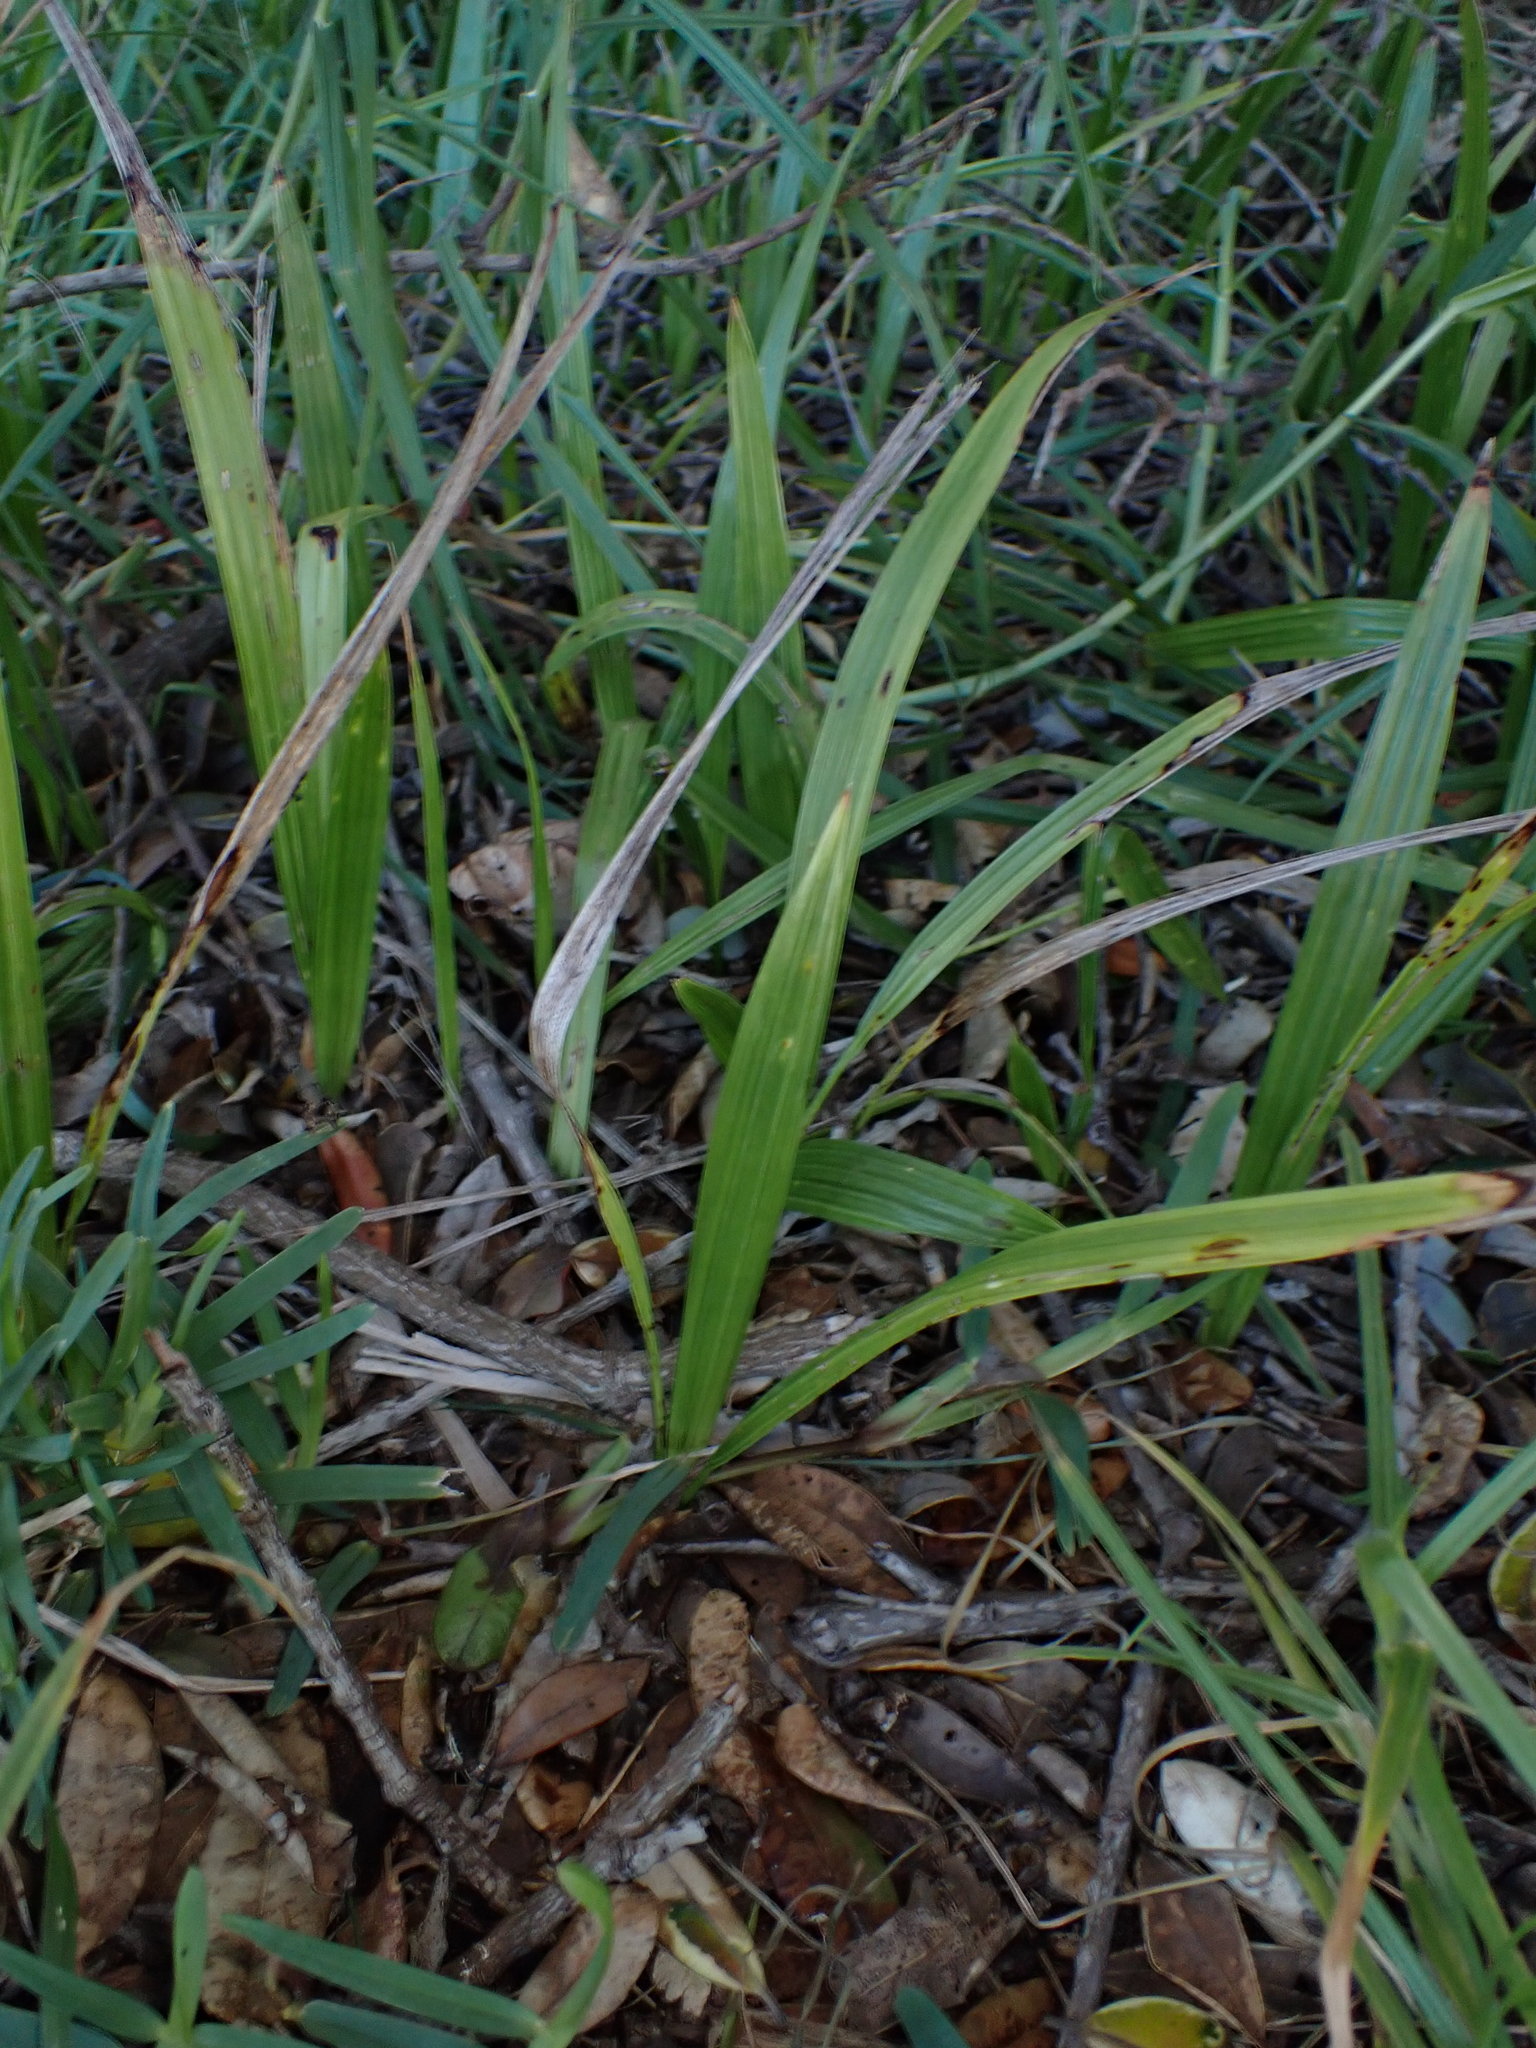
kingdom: Plantae
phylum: Tracheophyta
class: Liliopsida
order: Arecales
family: Arecaceae
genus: Phoenix
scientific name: Phoenix canariensis
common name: Canary island date palm
